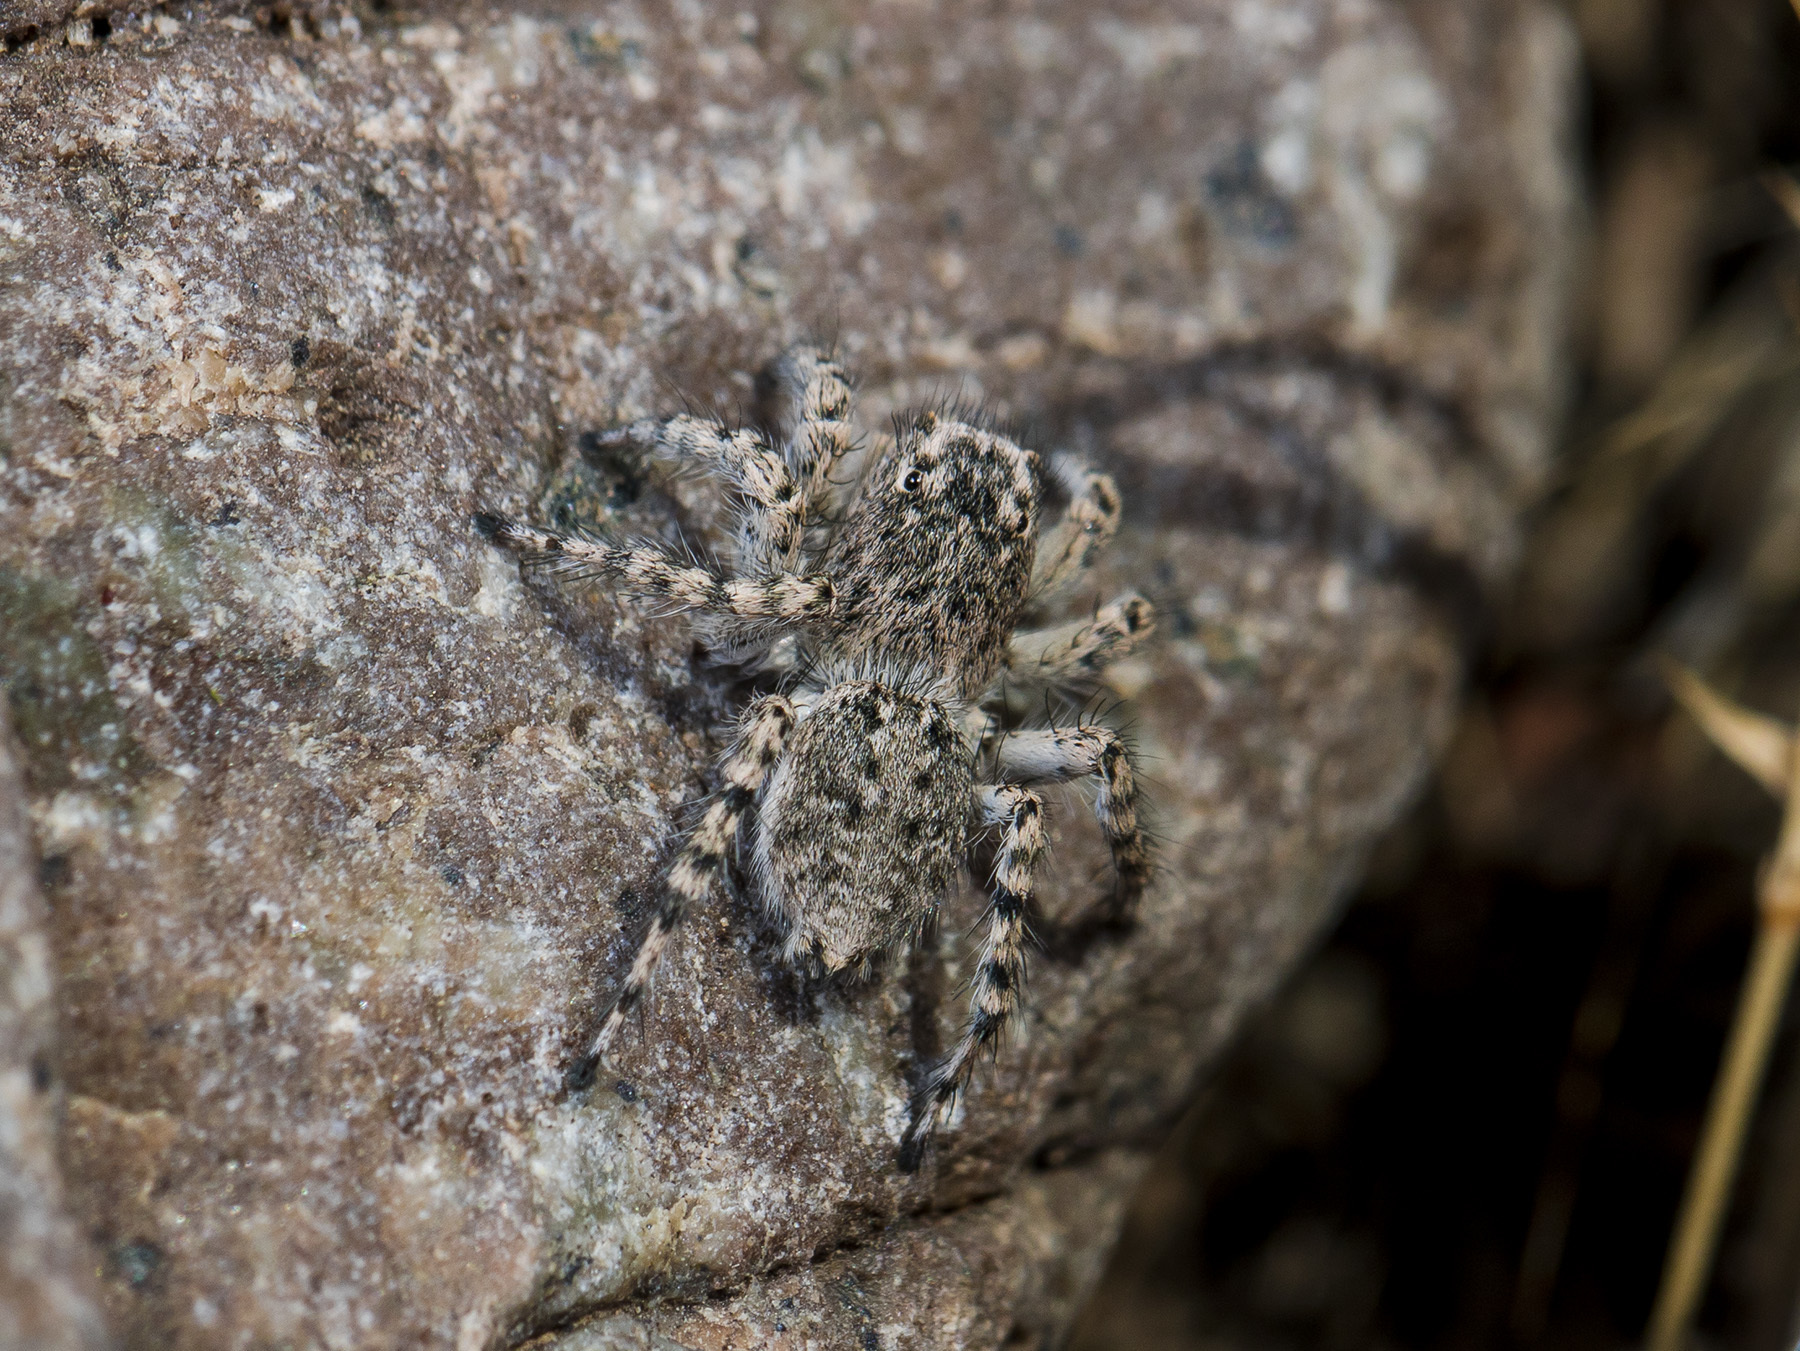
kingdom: Animalia
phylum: Arthropoda
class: Arachnida
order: Araneae
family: Salticidae
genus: Aelurillus
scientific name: Aelurillus dubatolovi
